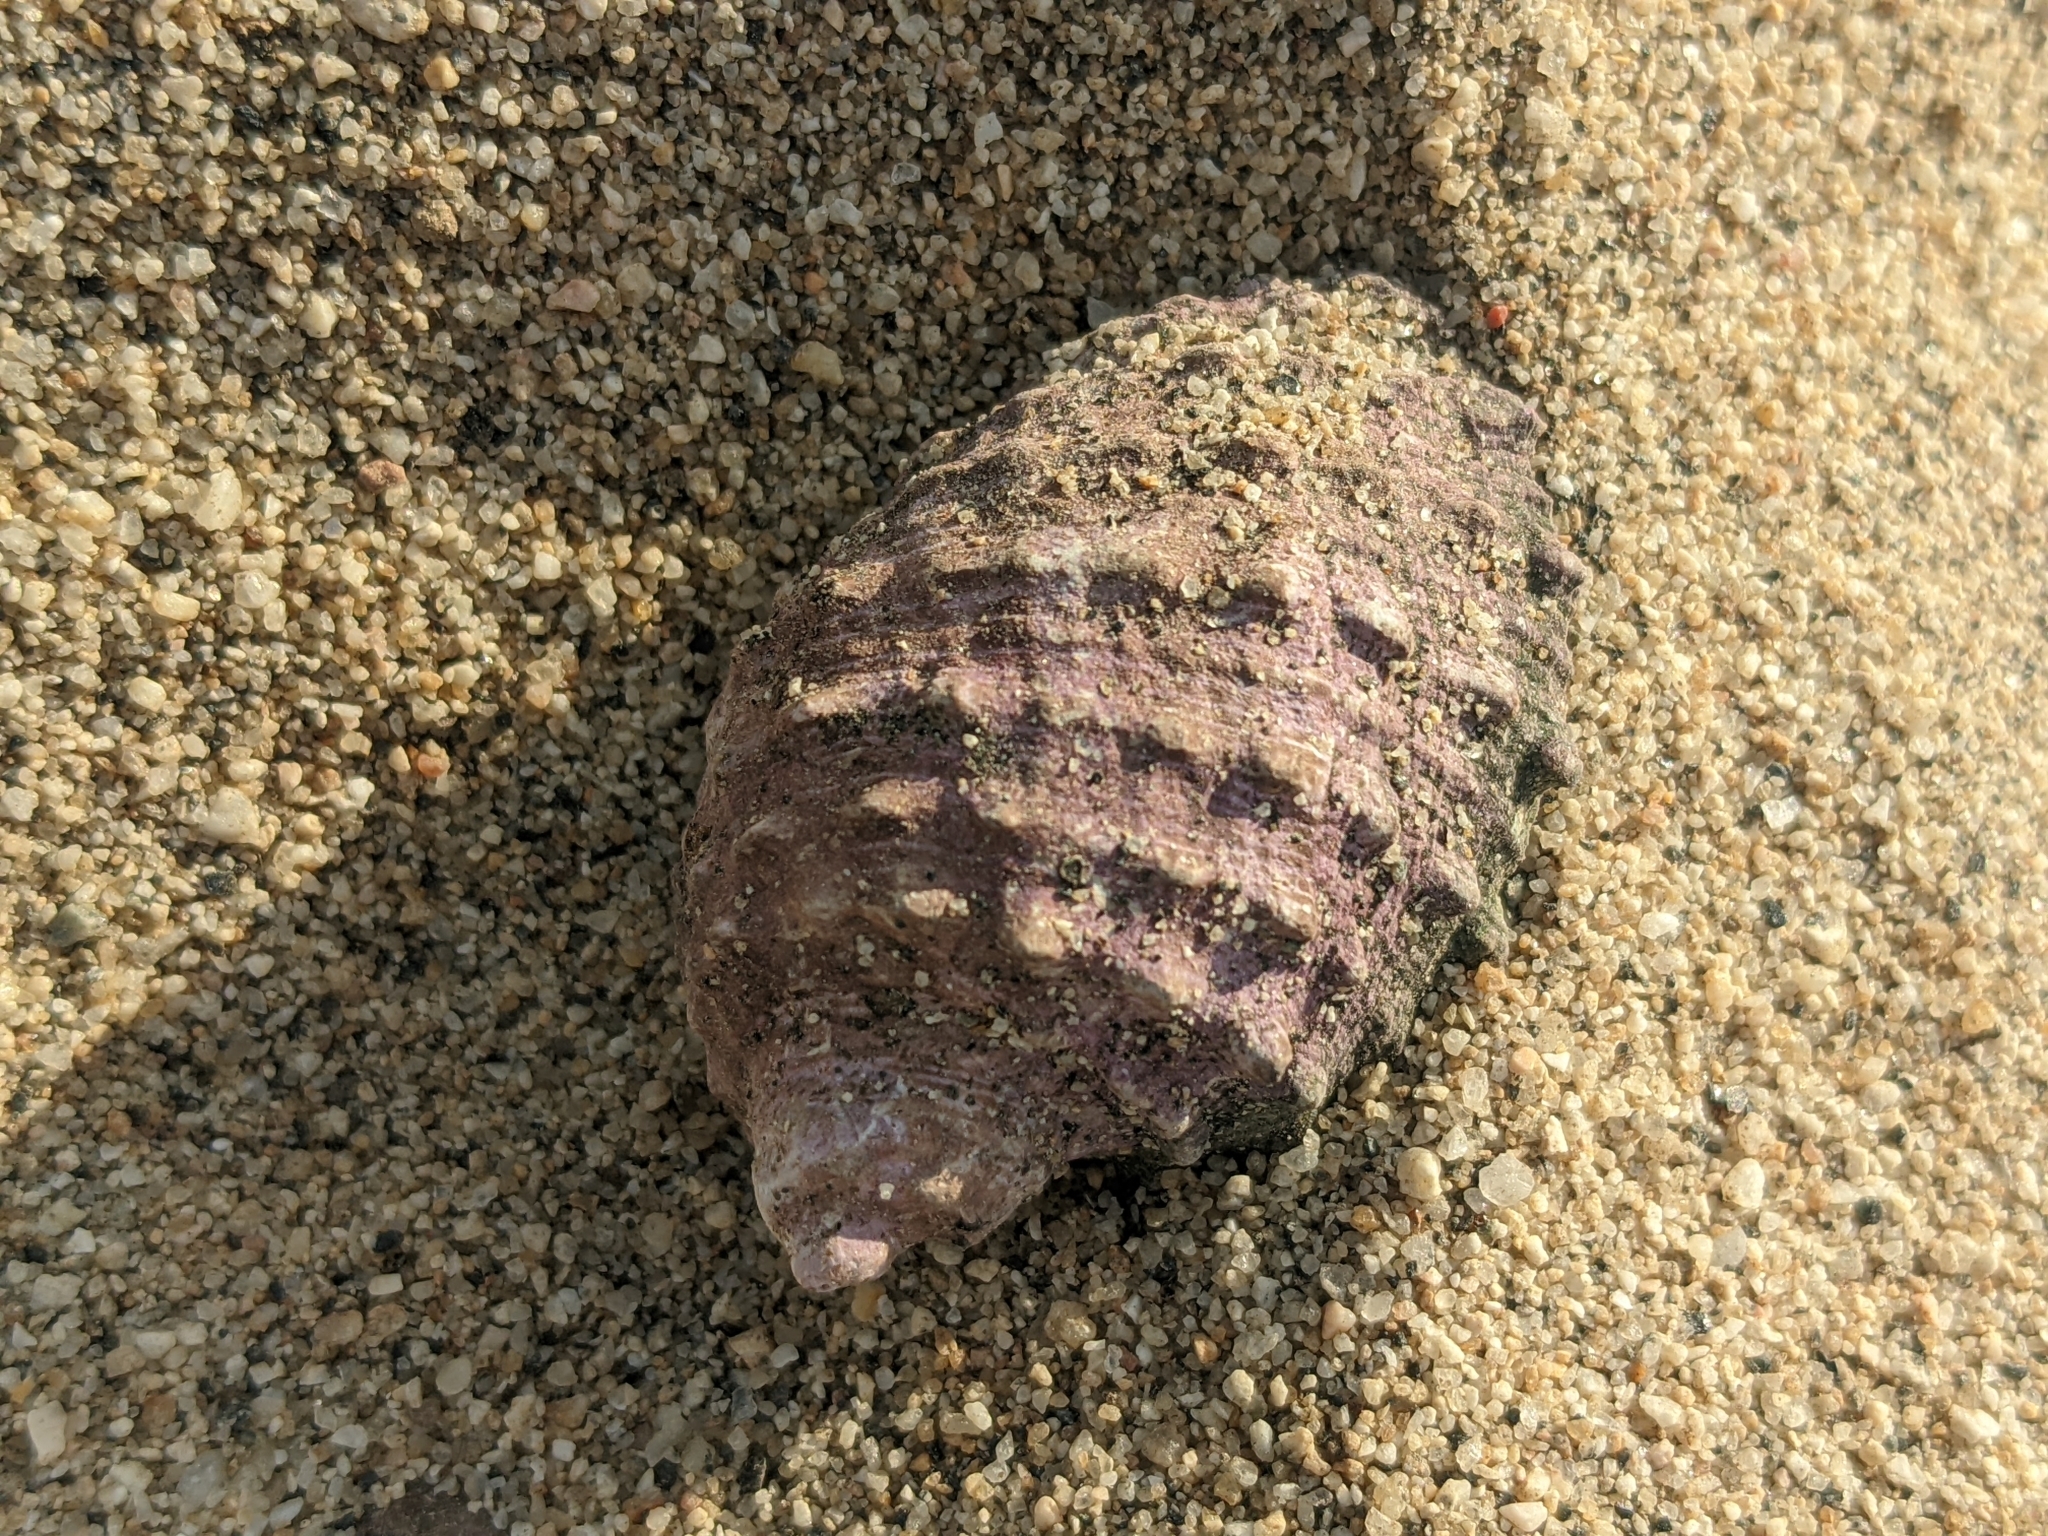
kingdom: Animalia
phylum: Mollusca
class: Gastropoda
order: Neogastropoda
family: Muricidae
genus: Plicopurpura
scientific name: Plicopurpura columellaris
